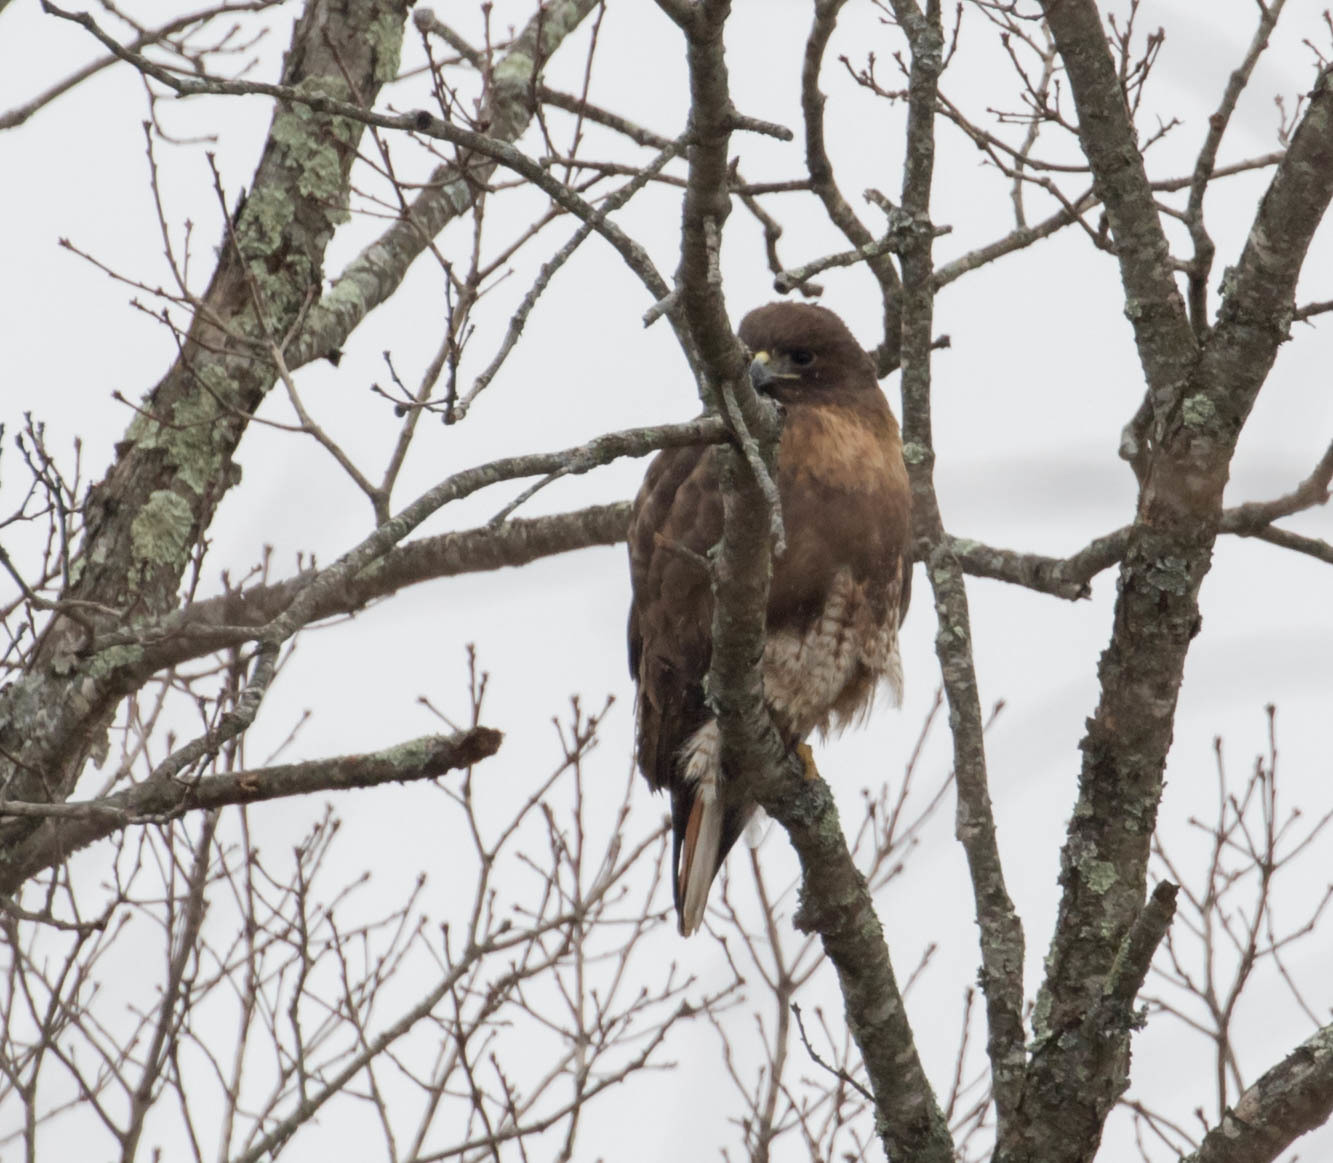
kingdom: Animalia
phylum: Chordata
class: Aves
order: Accipitriformes
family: Accipitridae
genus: Buteo
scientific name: Buteo jamaicensis
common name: Red-tailed hawk
